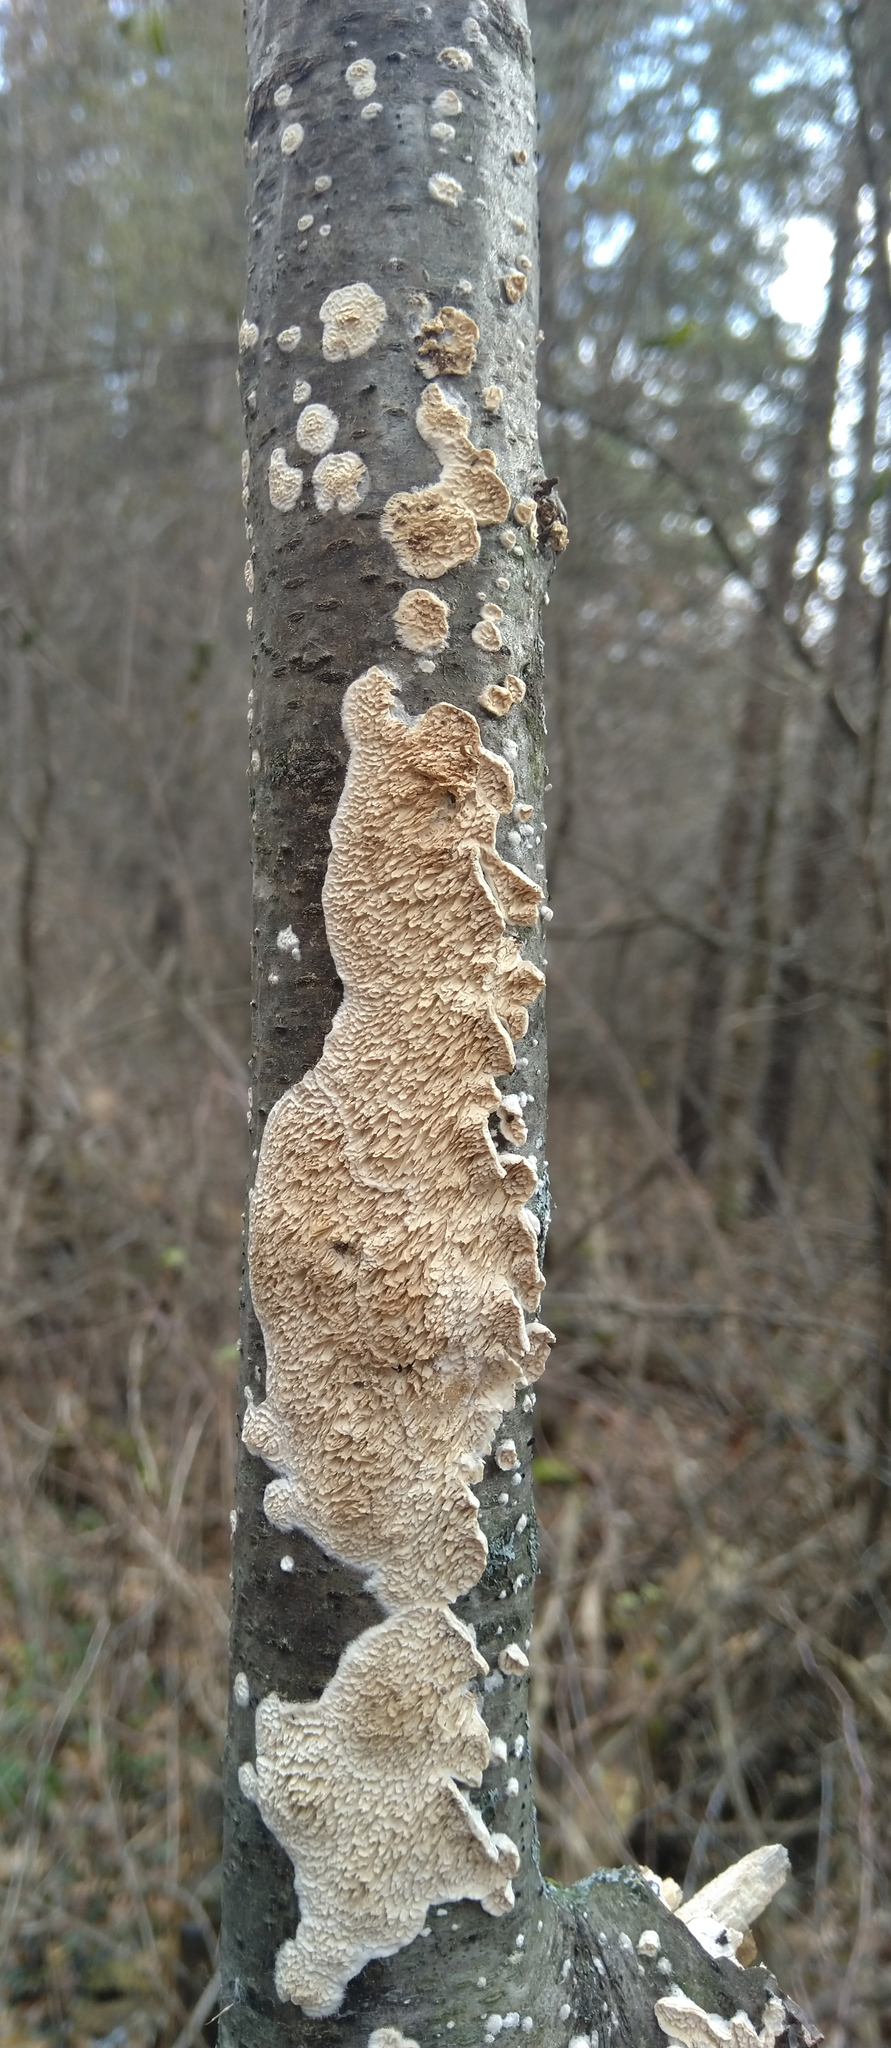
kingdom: Fungi
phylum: Basidiomycota
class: Agaricomycetes
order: Polyporales
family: Irpicaceae
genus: Irpex
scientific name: Irpex lacteus
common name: Milk-white toothed polypore
